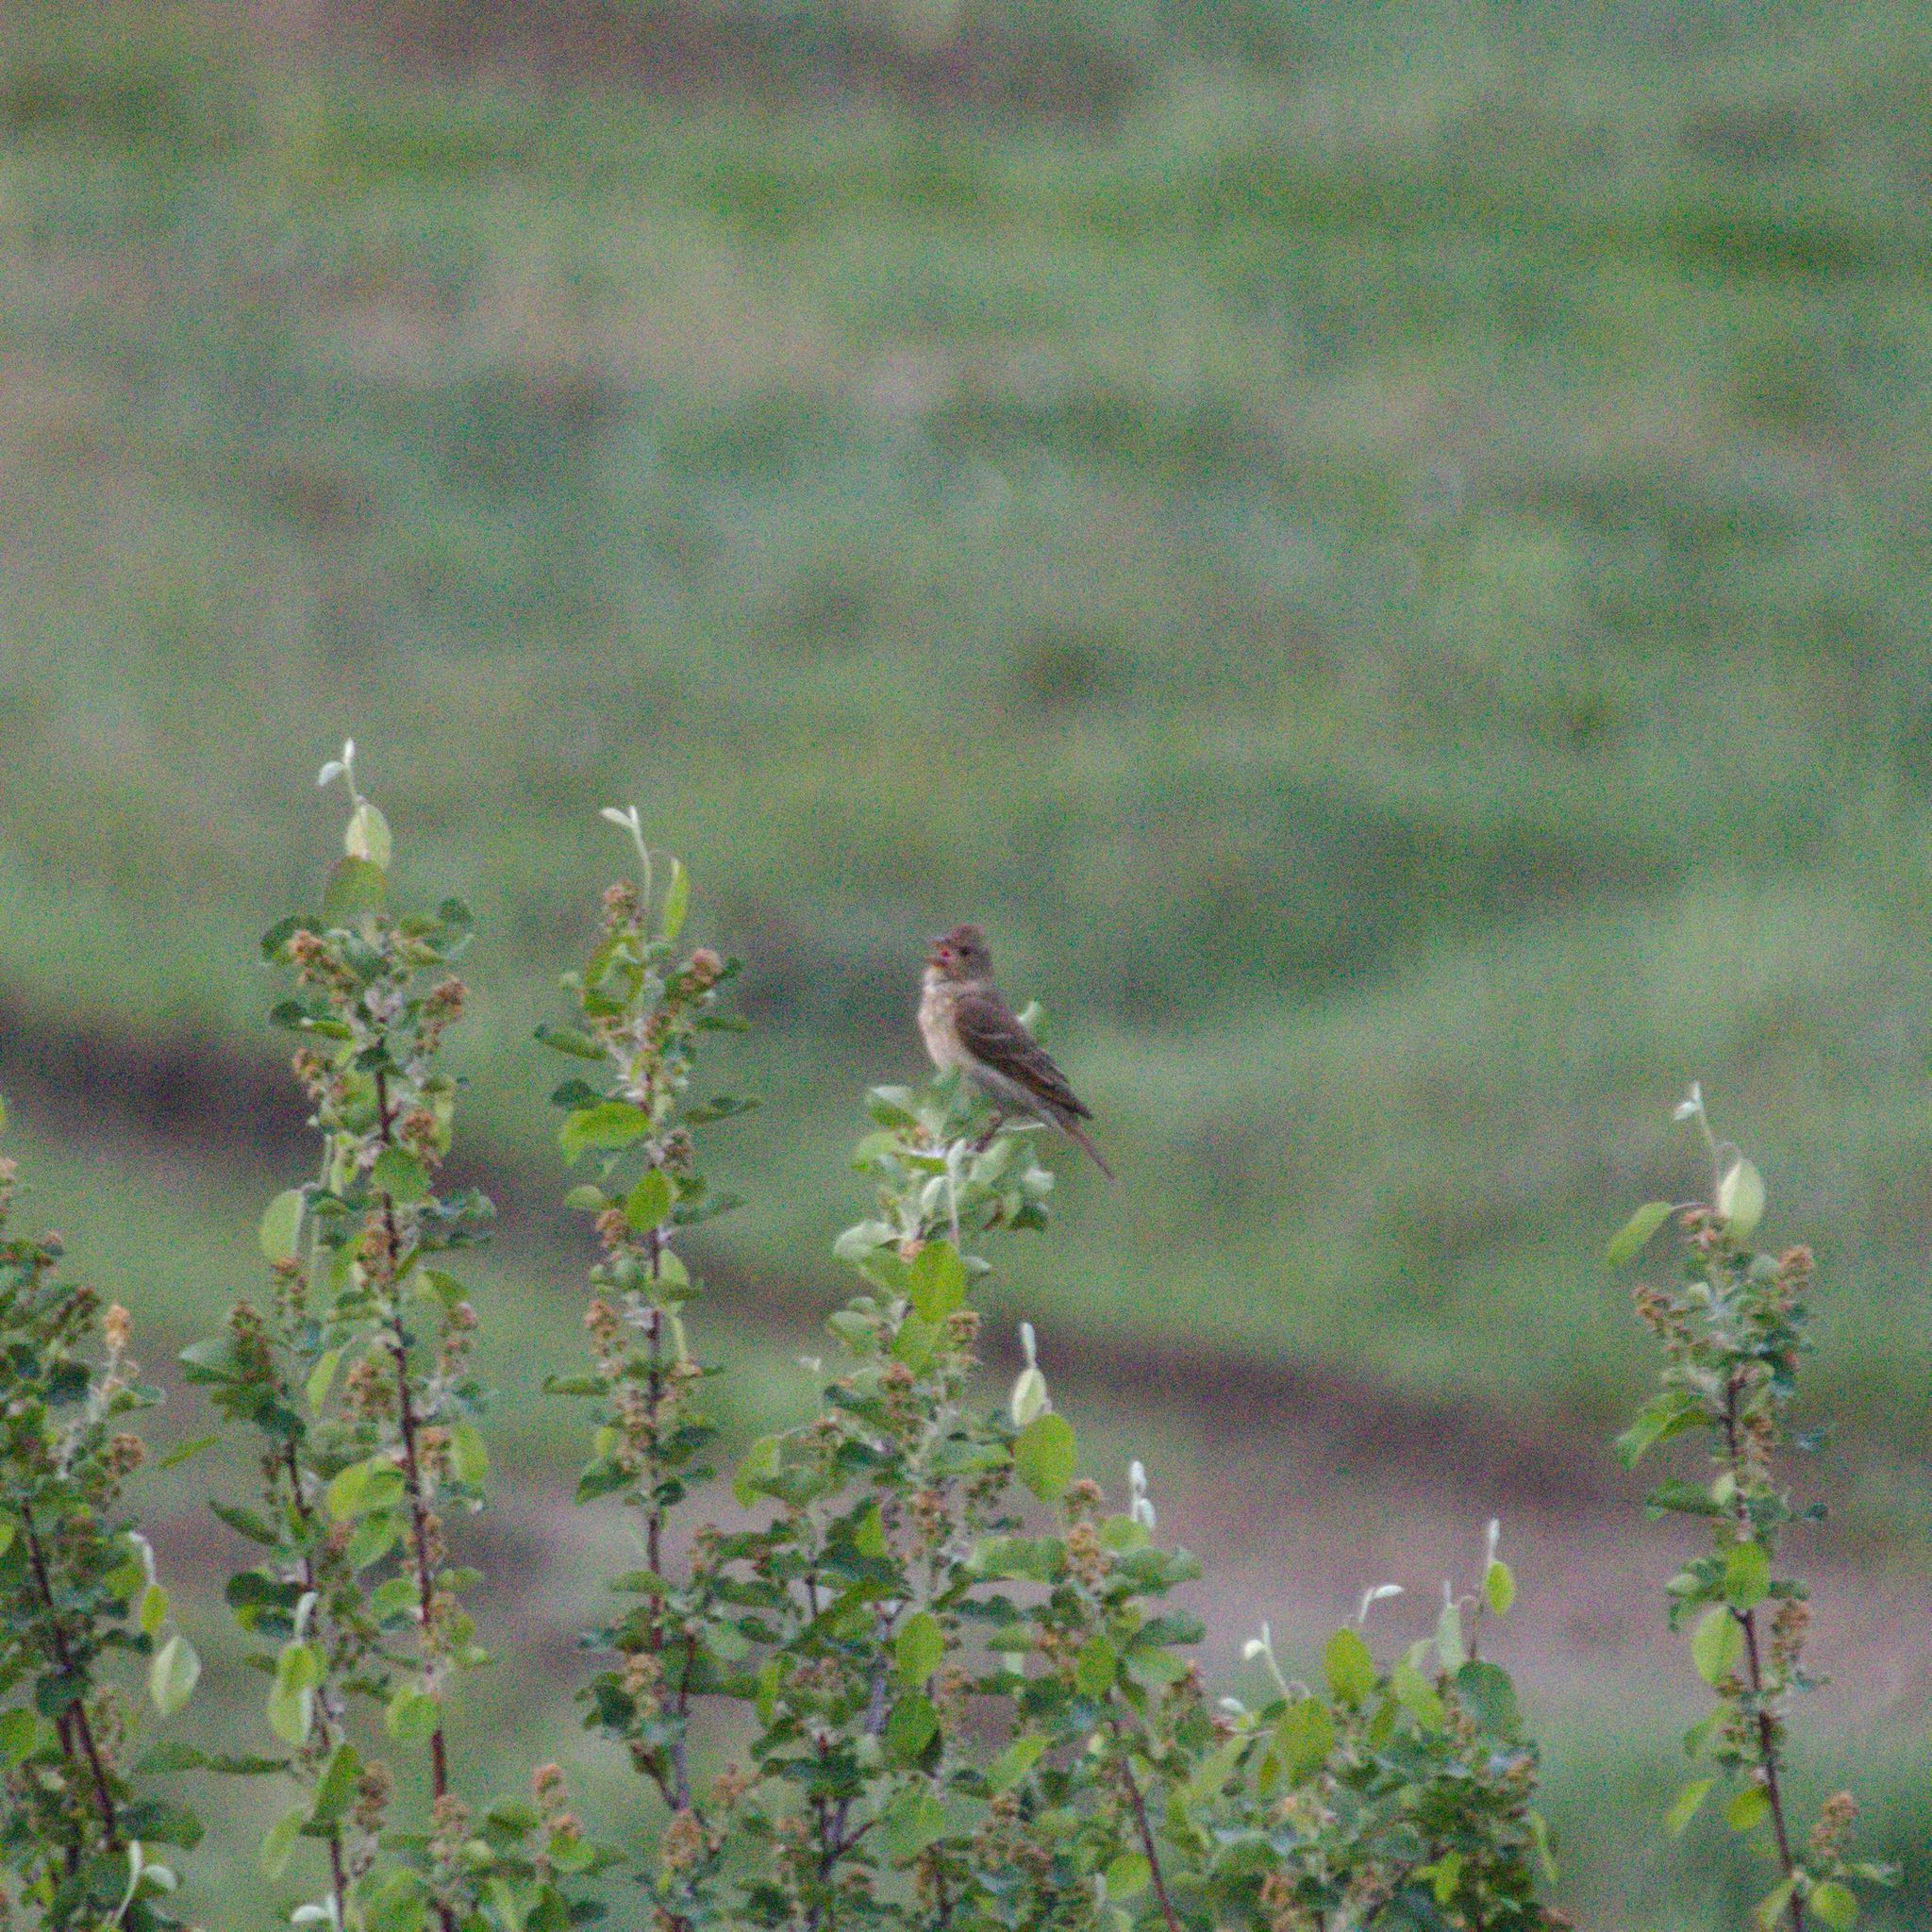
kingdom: Animalia
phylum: Chordata
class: Aves
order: Passeriformes
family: Fringillidae
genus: Carpodacus
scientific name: Carpodacus erythrinus
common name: Common rosefinch
